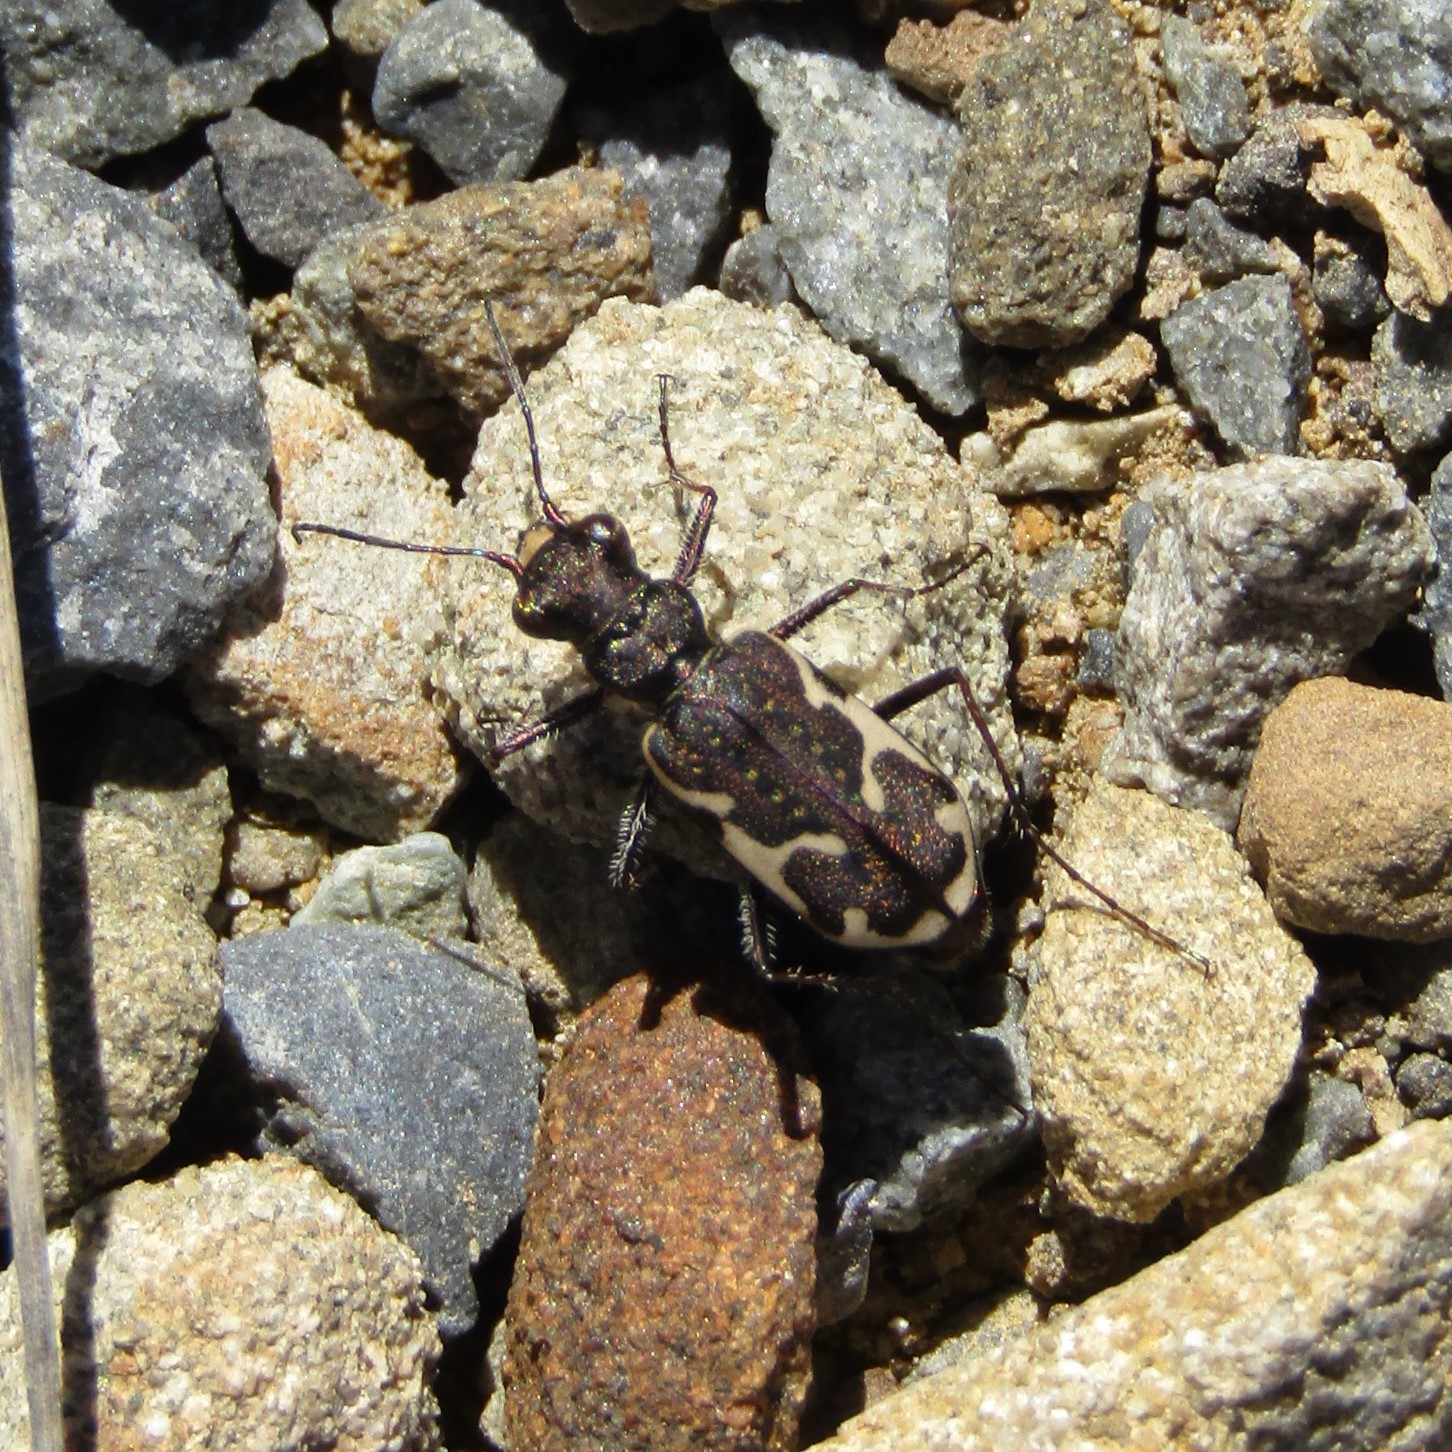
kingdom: Animalia
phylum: Arthropoda
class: Insecta
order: Coleoptera
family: Carabidae
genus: Neocicindela
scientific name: Neocicindela tuberculata
